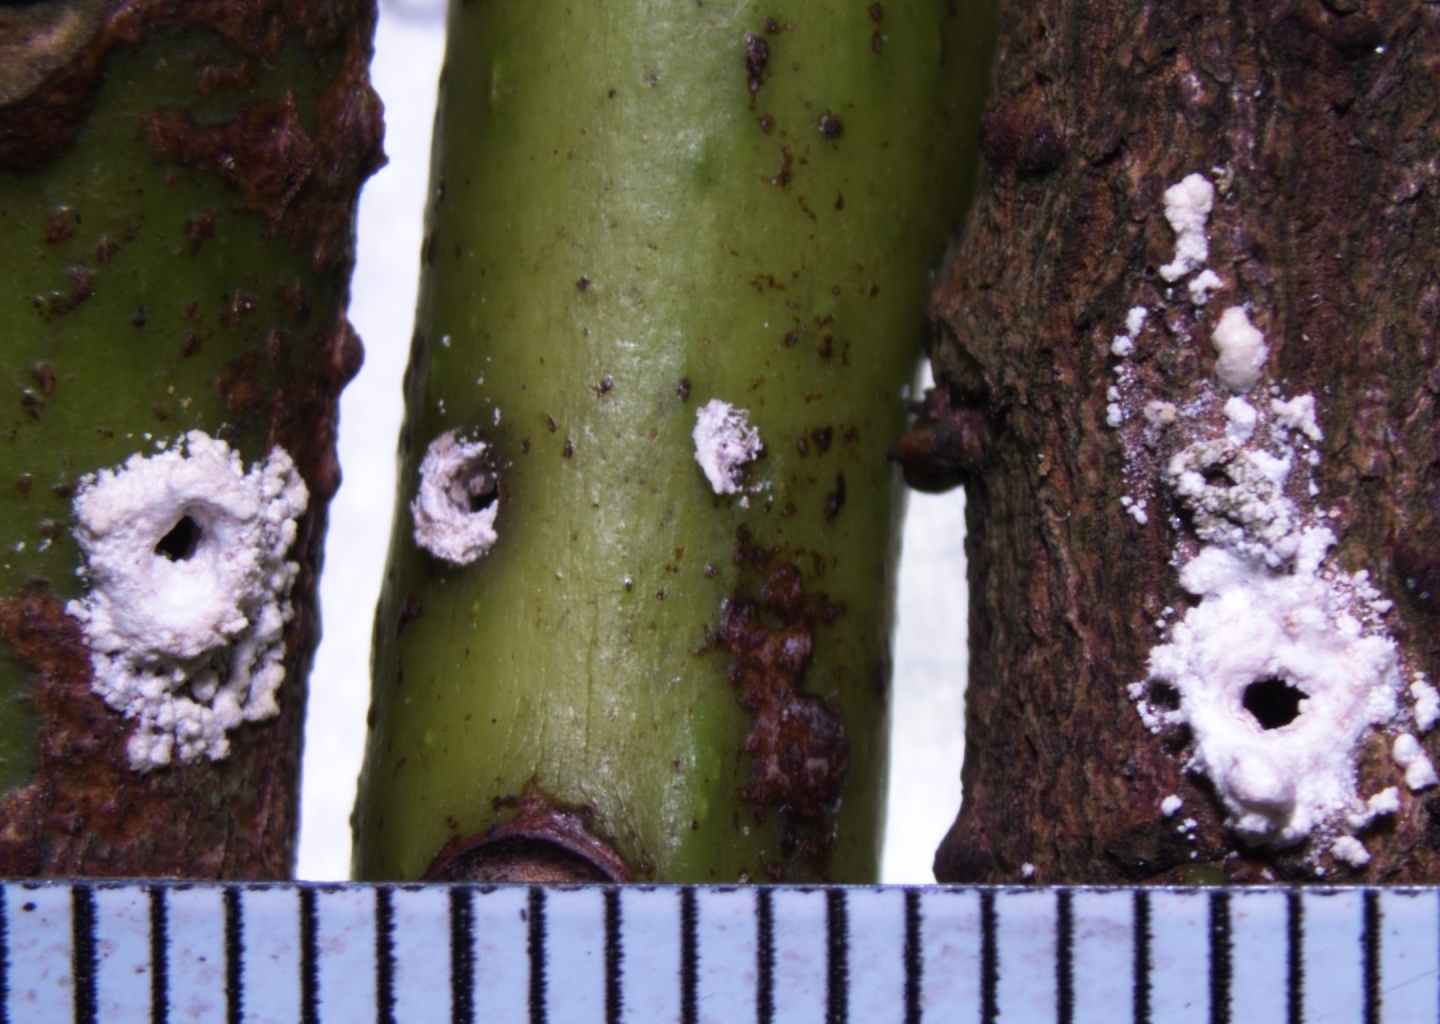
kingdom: Animalia
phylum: Arthropoda
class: Insecta
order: Coleoptera
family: Curculionidae
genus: Xylosandrus
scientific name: Xylosandrus compactus
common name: Black twig borer
